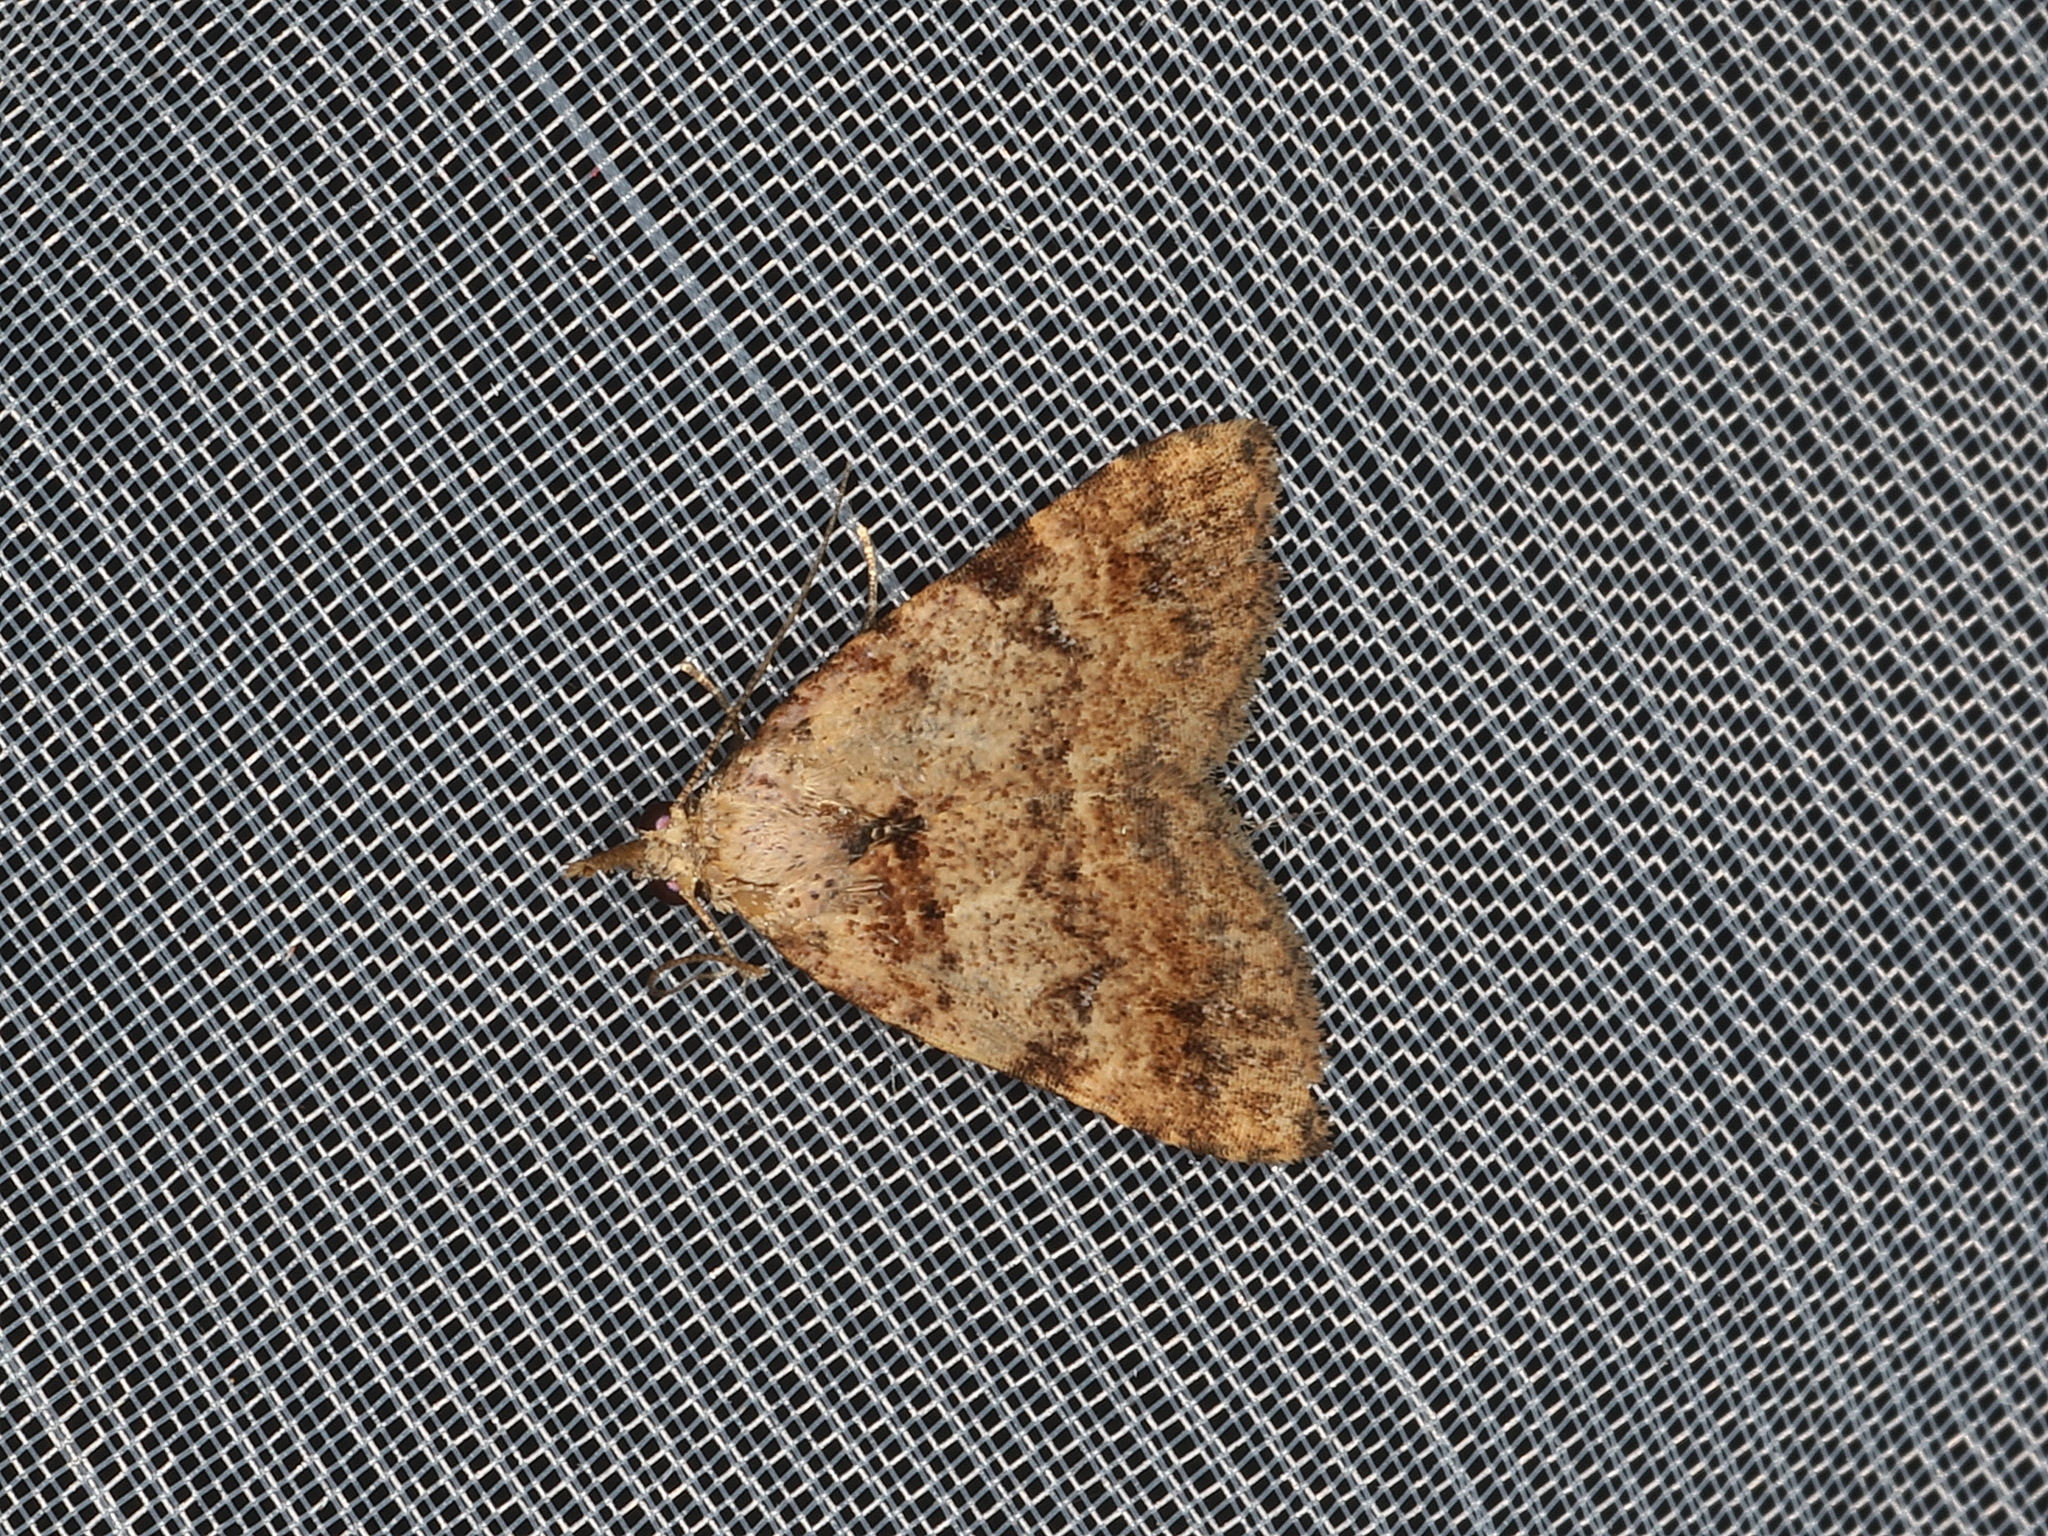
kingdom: Animalia
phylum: Arthropoda
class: Insecta
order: Lepidoptera
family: Erebidae
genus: Alapadna
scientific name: Alapadna pauropis
